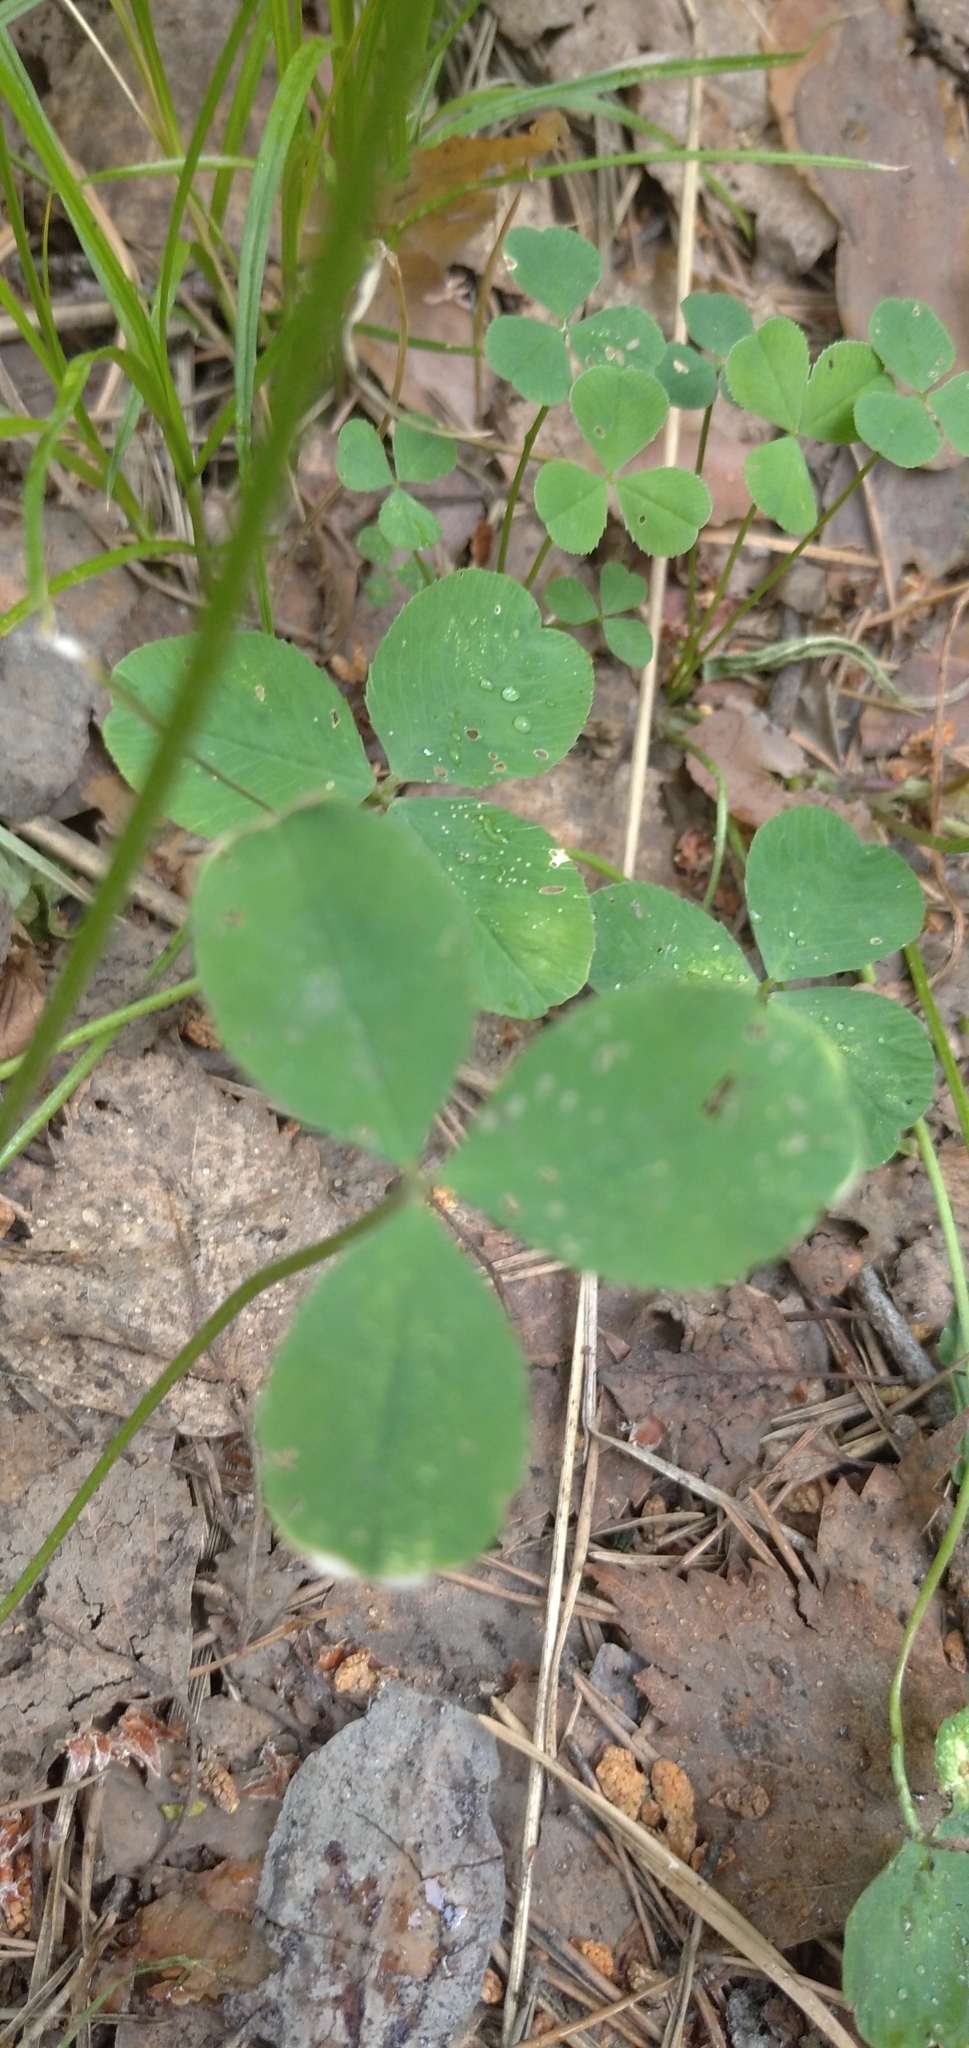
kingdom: Plantae
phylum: Tracheophyta
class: Magnoliopsida
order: Fabales
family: Fabaceae
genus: Trifolium
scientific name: Trifolium repens
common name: White clover
